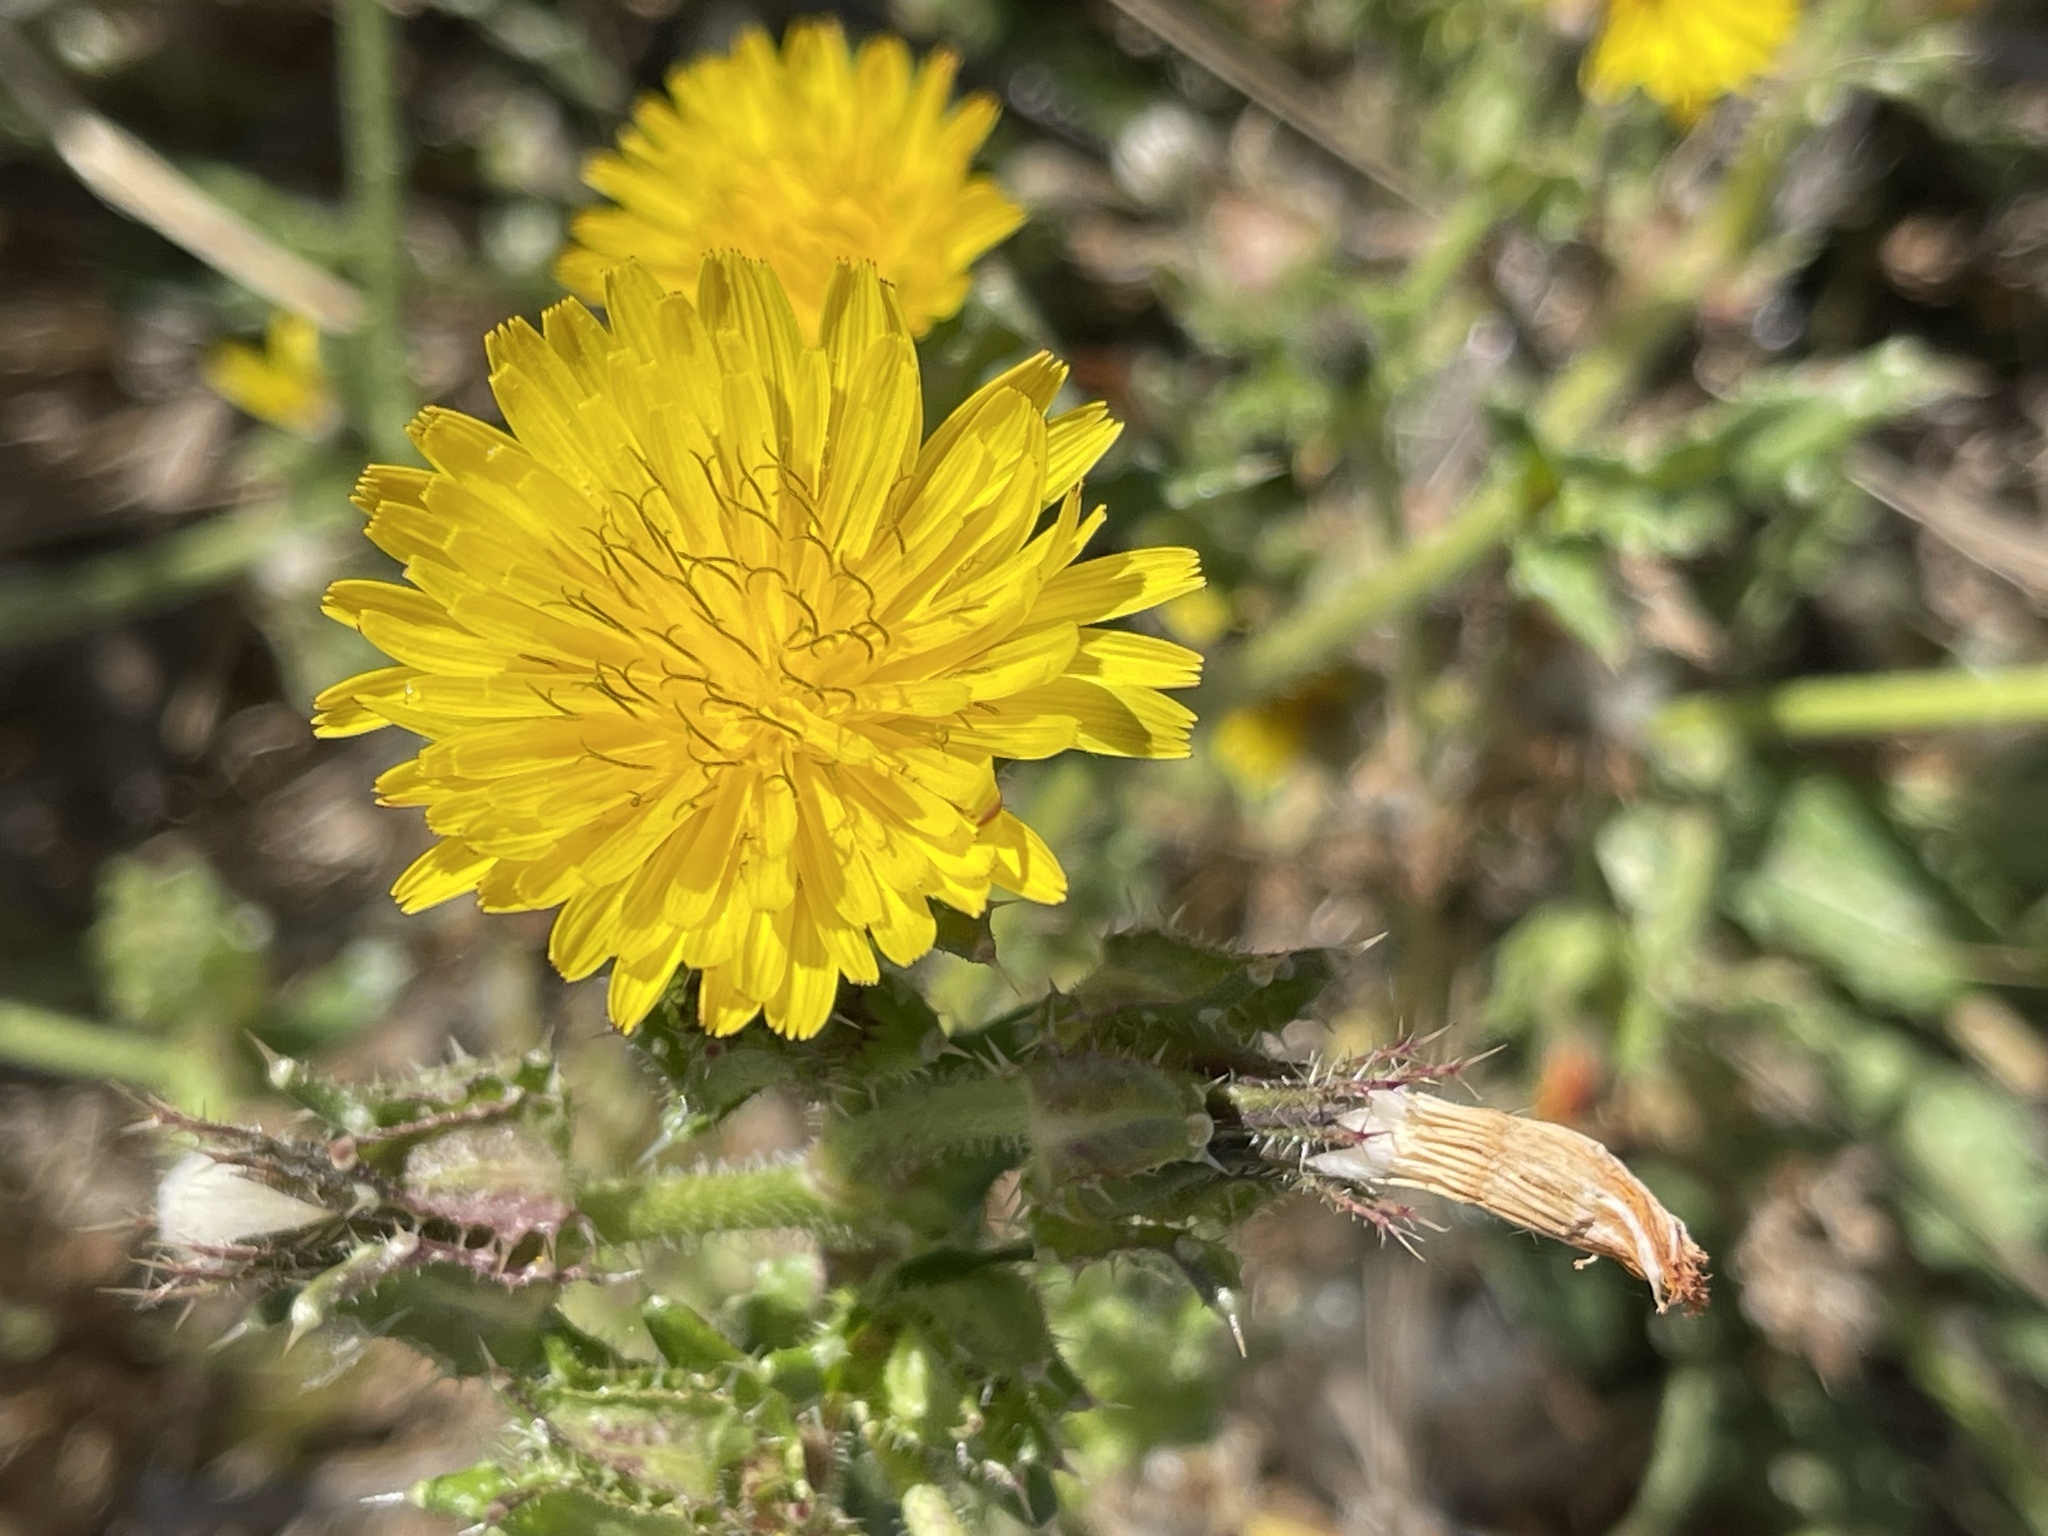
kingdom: Plantae
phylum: Tracheophyta
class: Magnoliopsida
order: Asterales
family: Asteraceae
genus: Helminthotheca
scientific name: Helminthotheca echioides
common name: Ox-tongue
